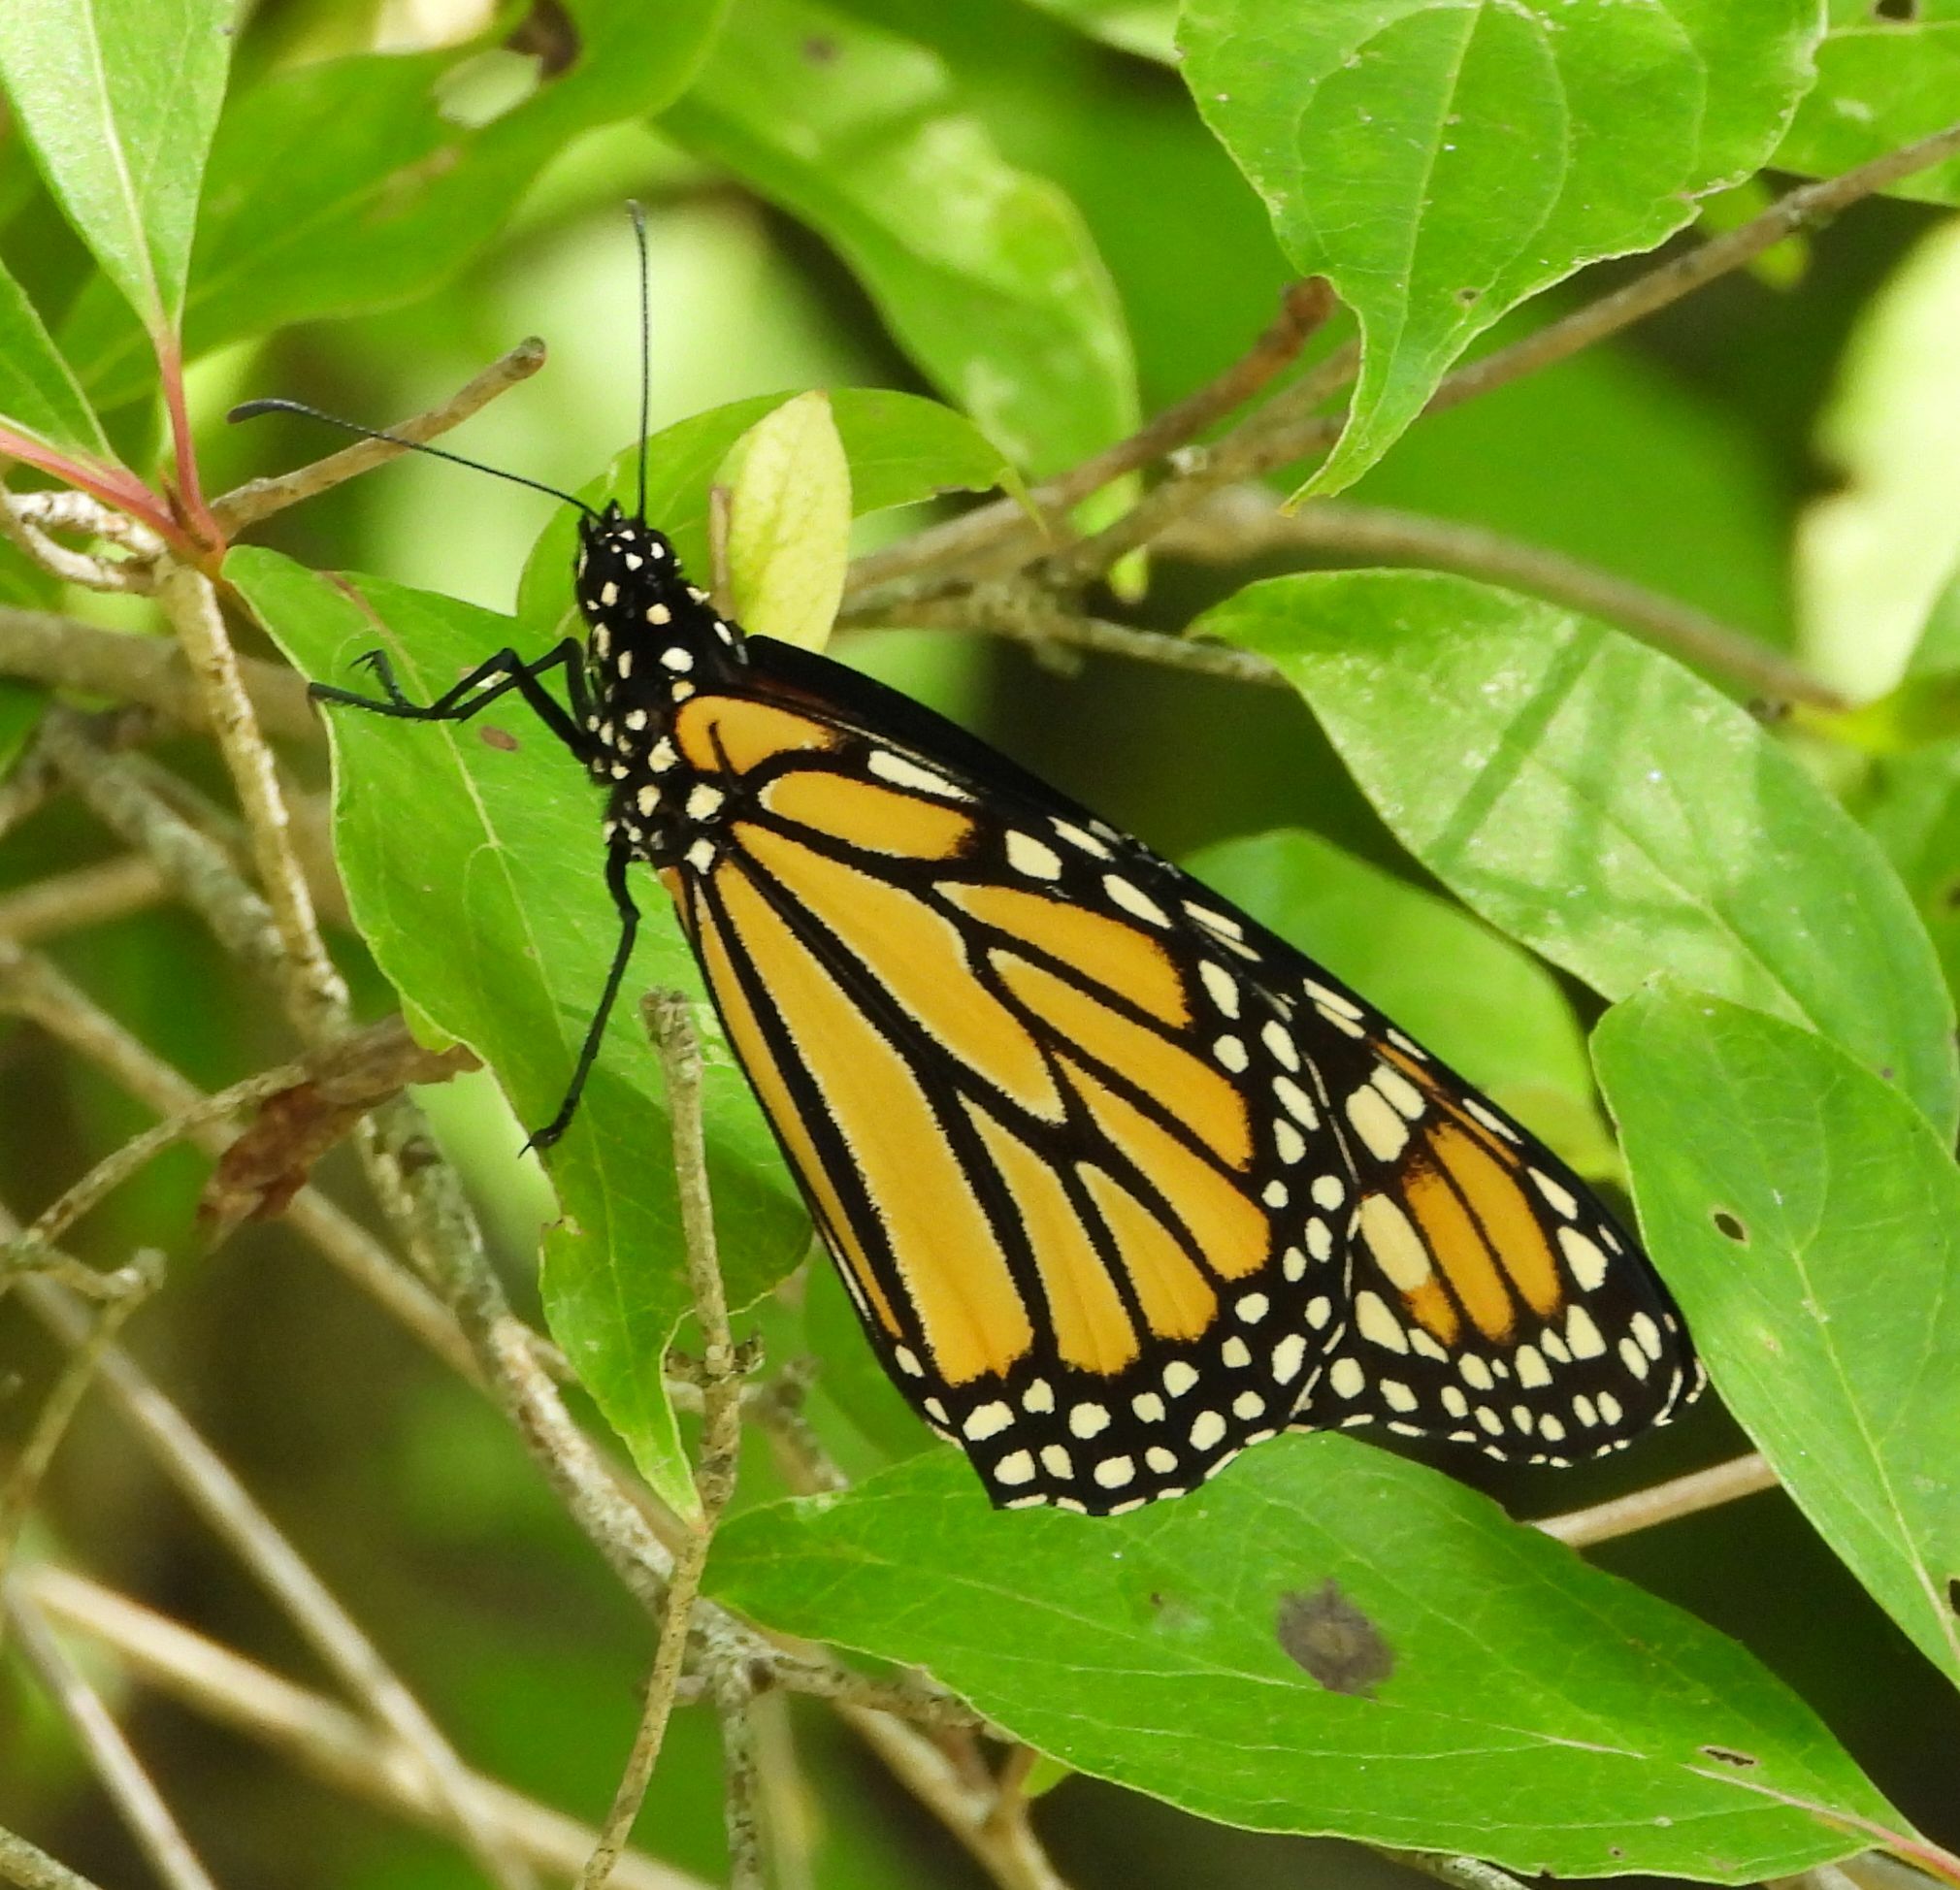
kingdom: Animalia
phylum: Arthropoda
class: Insecta
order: Lepidoptera
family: Nymphalidae
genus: Danaus
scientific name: Danaus plexippus
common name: Monarch
